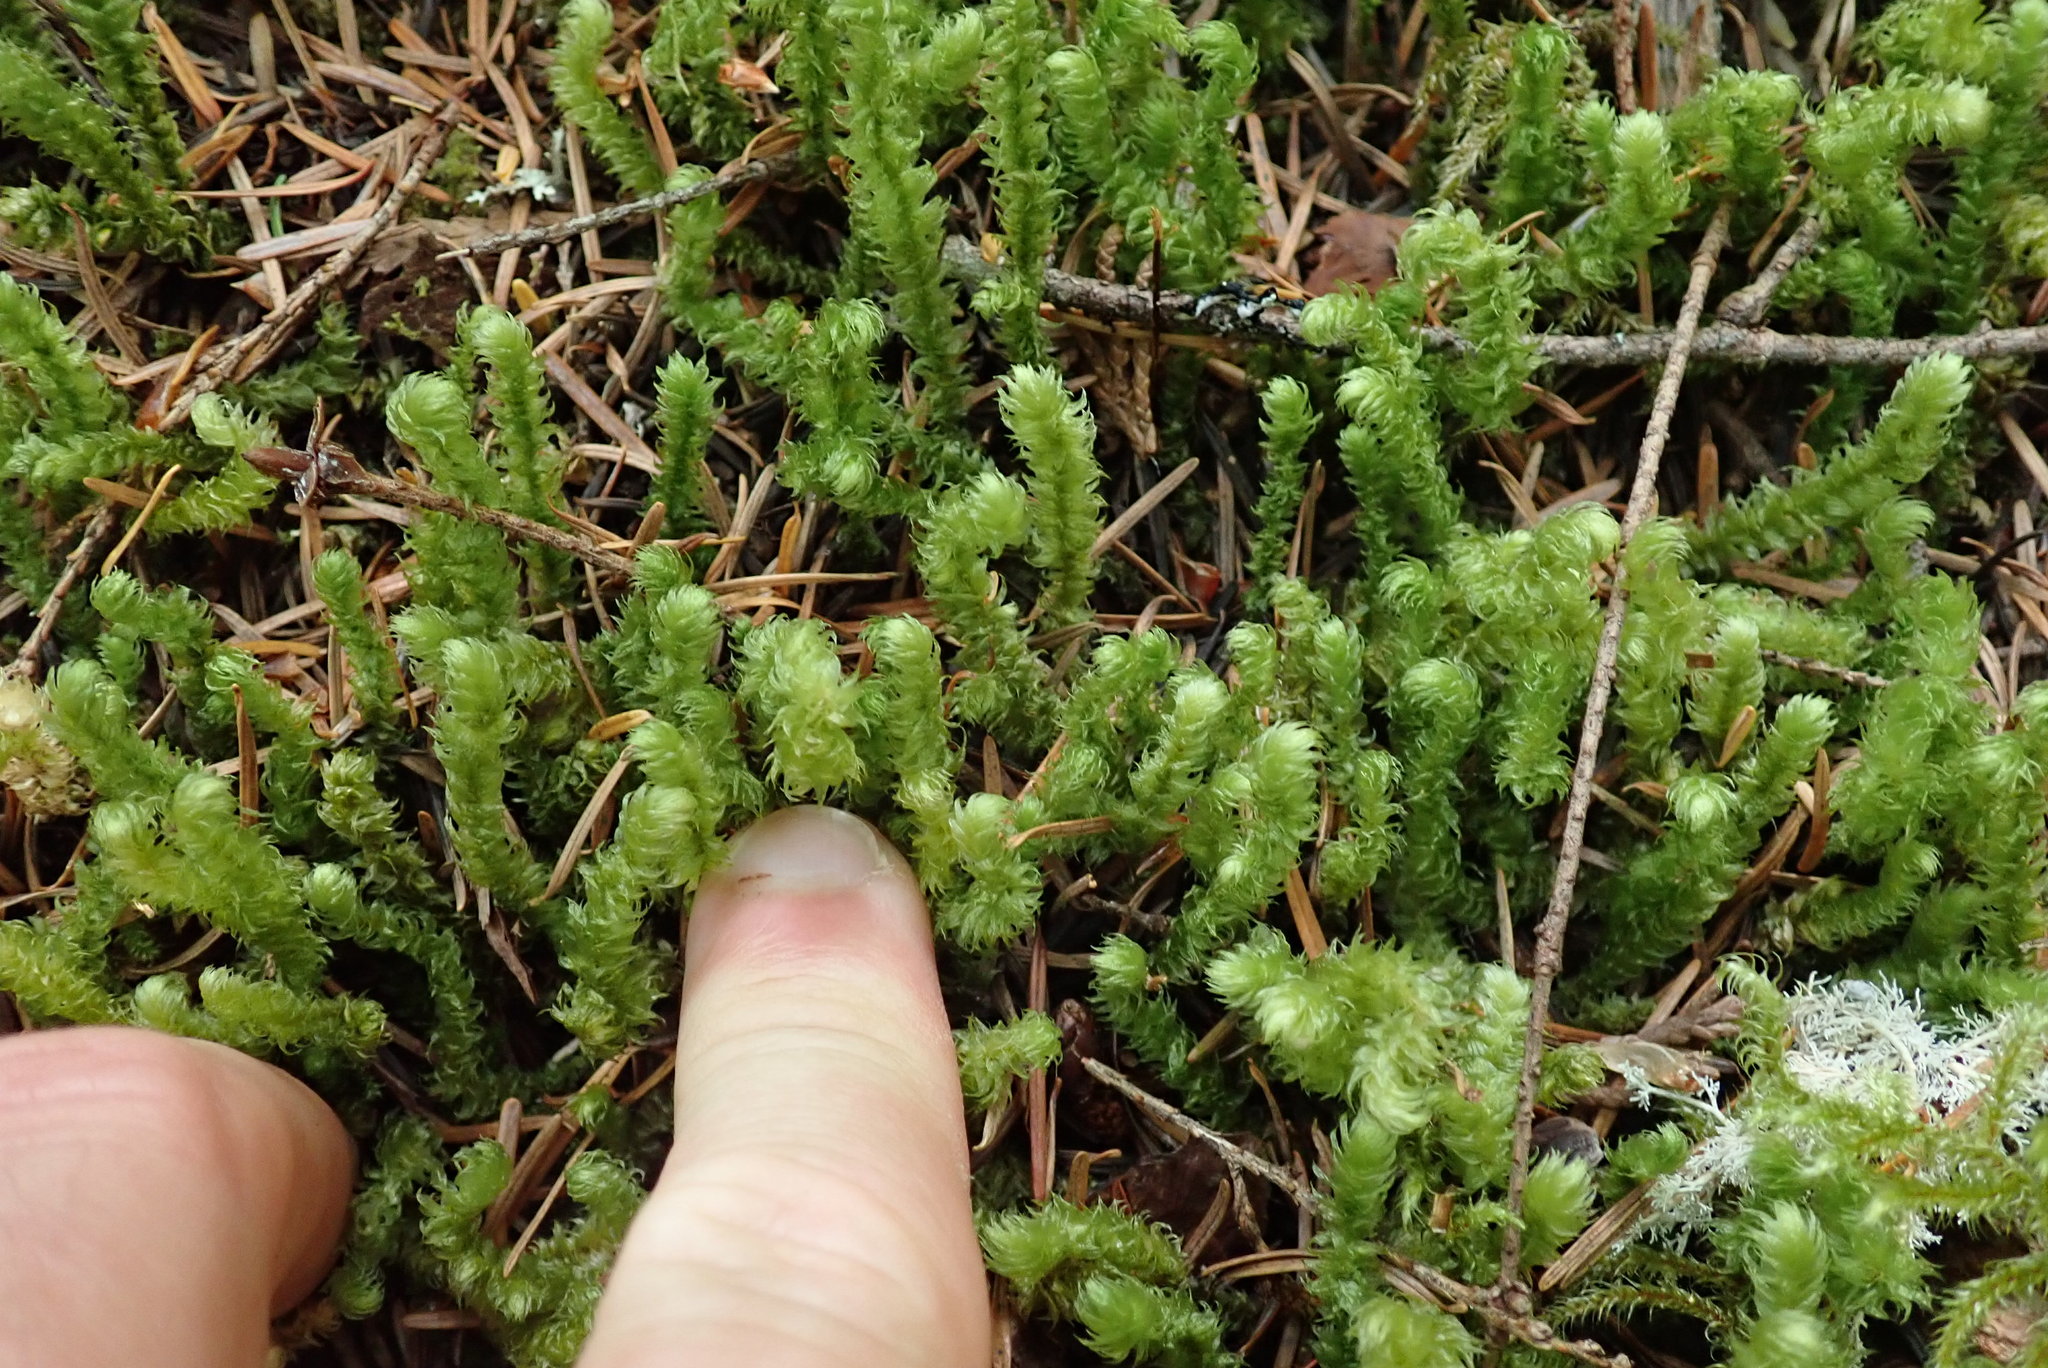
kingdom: Plantae
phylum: Bryophyta
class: Bryopsida
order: Hypnales
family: Hylocomiaceae
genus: Rhytidiopsis
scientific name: Rhytidiopsis robusta
